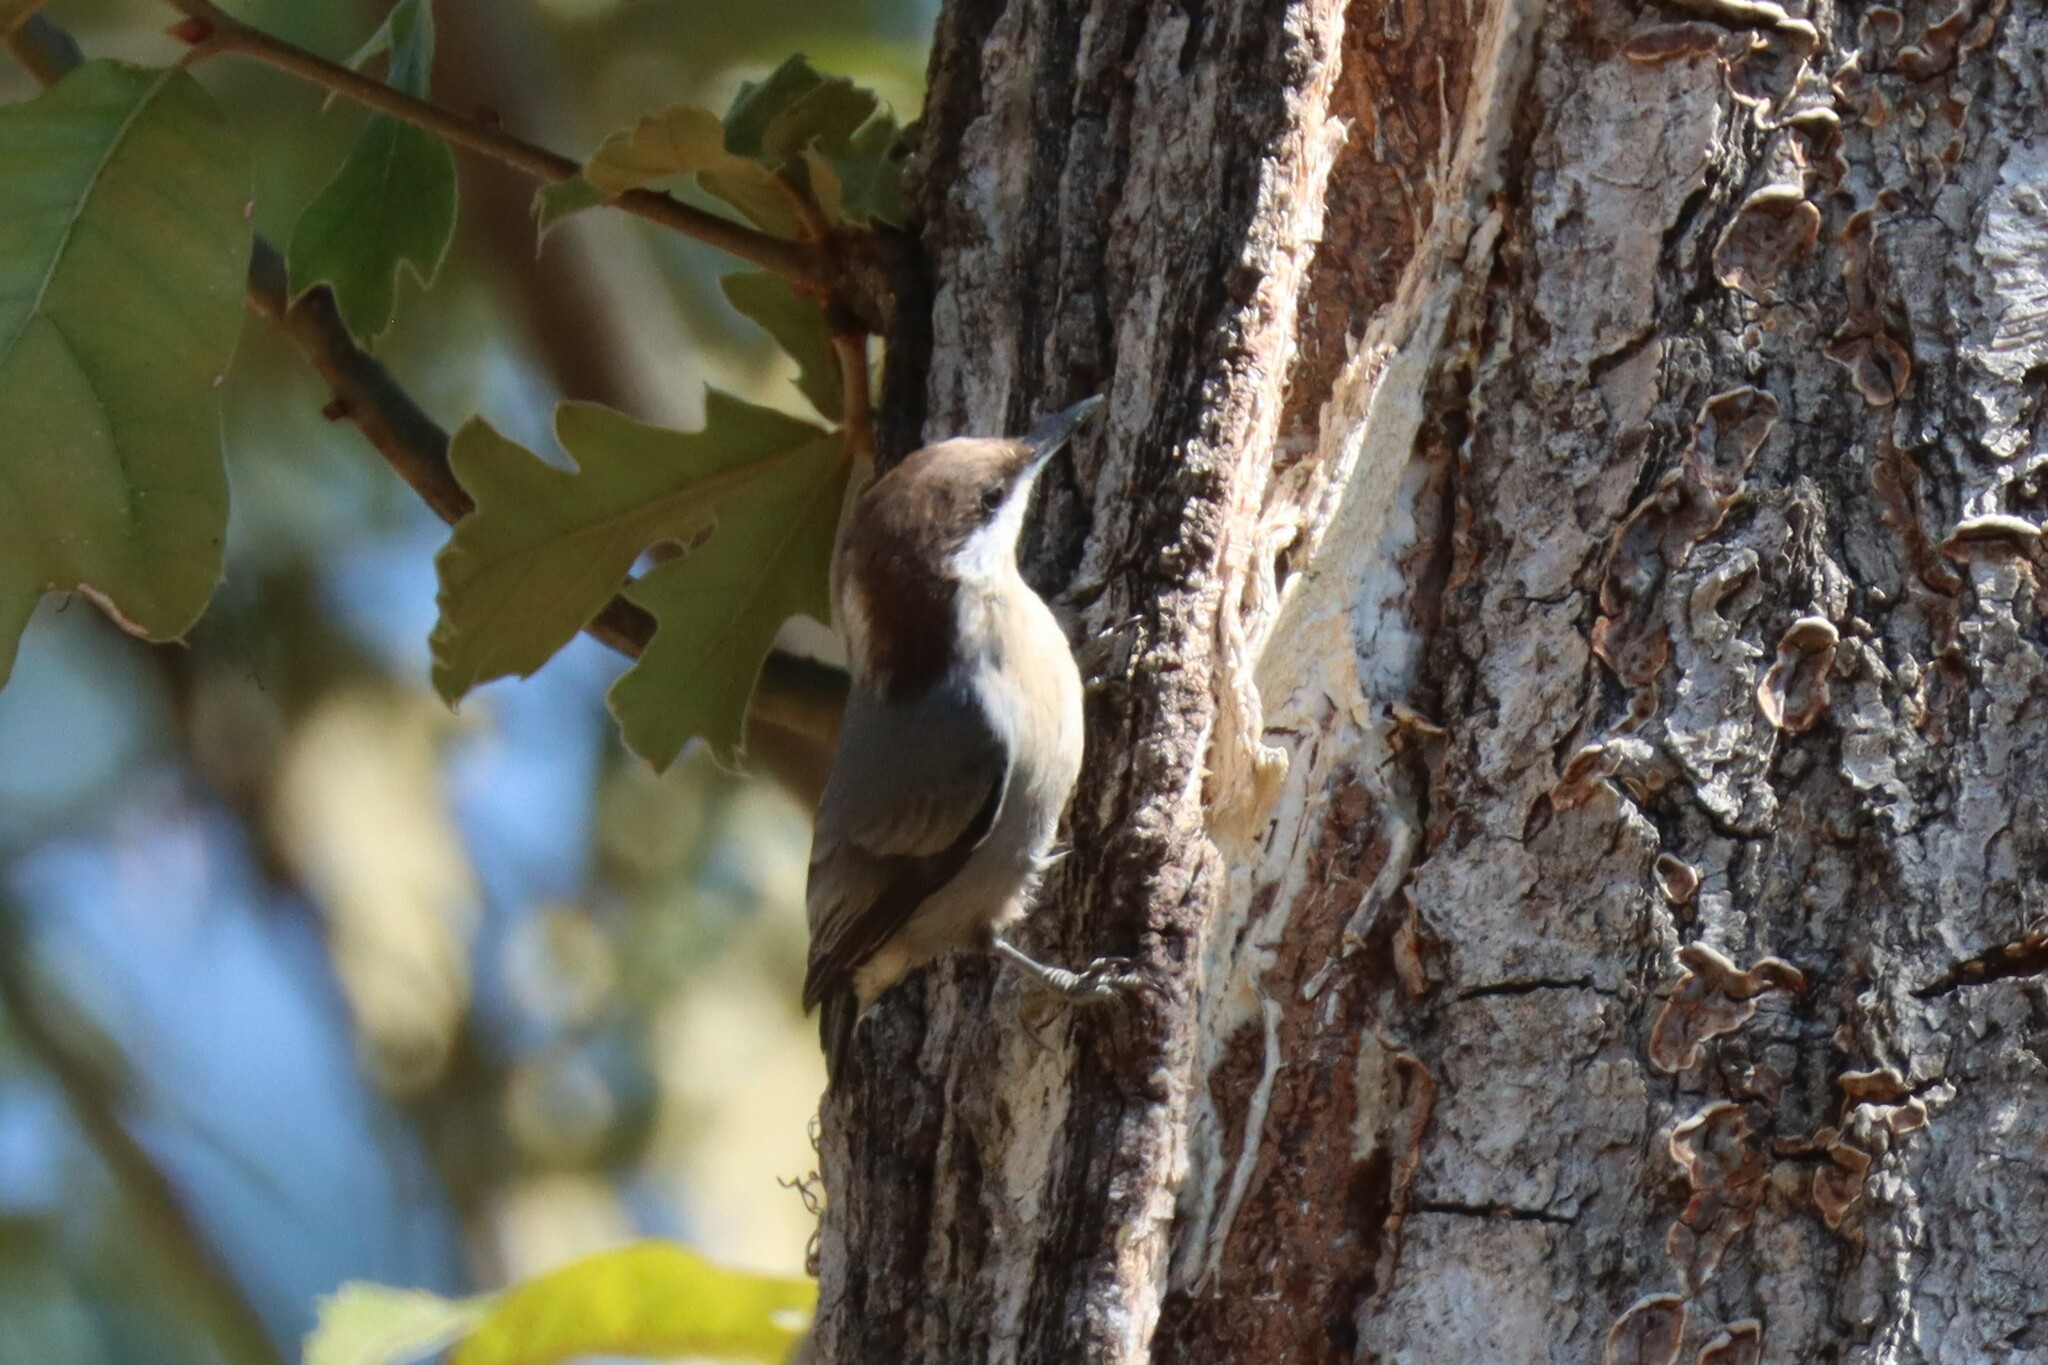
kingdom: Animalia
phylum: Chordata
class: Aves
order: Passeriformes
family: Sittidae
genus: Sitta
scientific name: Sitta pusilla
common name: Brown-headed nuthatch
